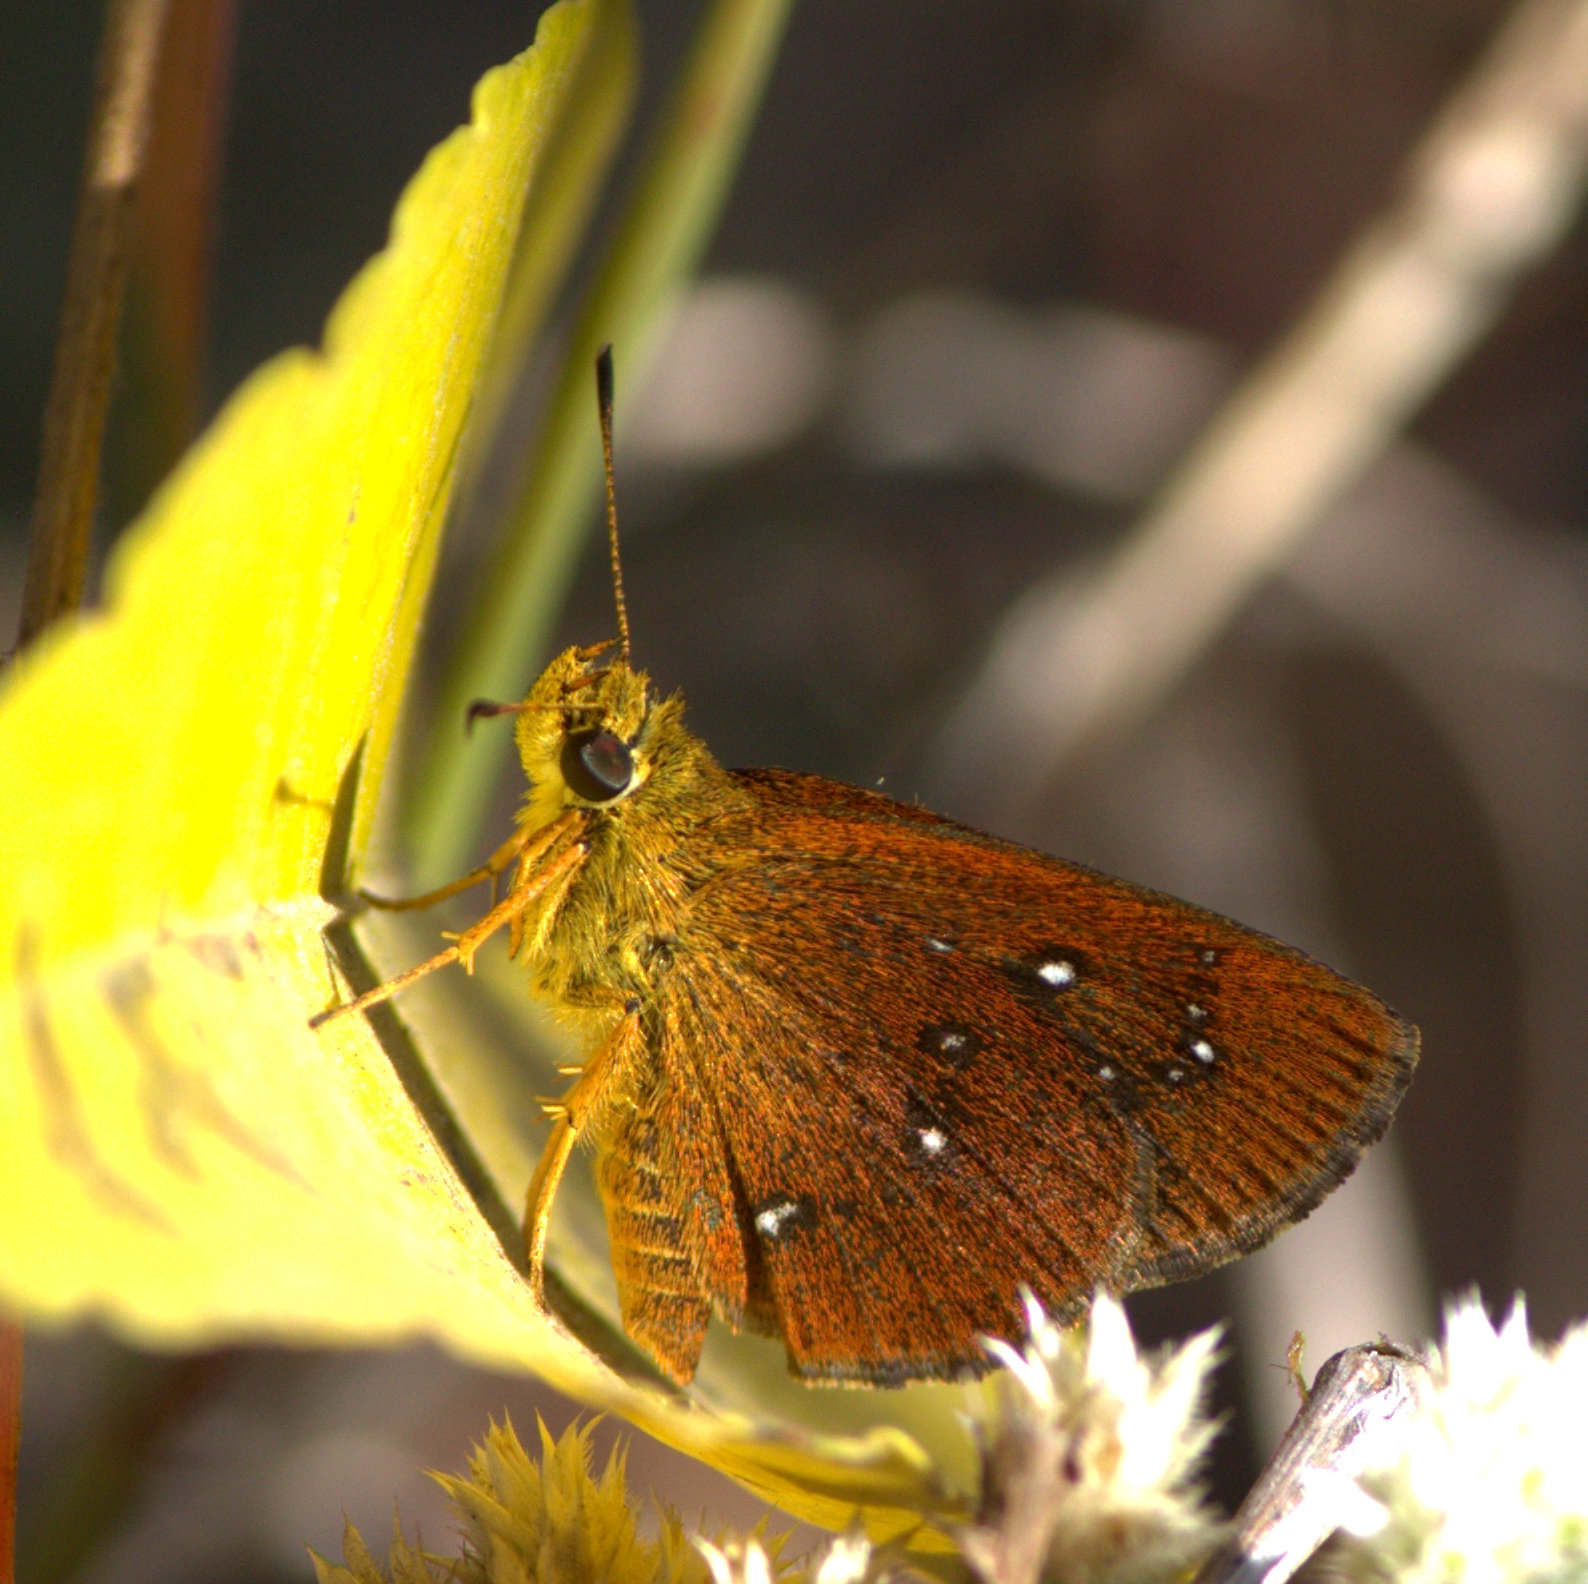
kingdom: Animalia
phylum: Arthropoda
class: Insecta
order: Lepidoptera
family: Hesperiidae
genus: Iambrix
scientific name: Iambrix salsala
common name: Chestnut bob
